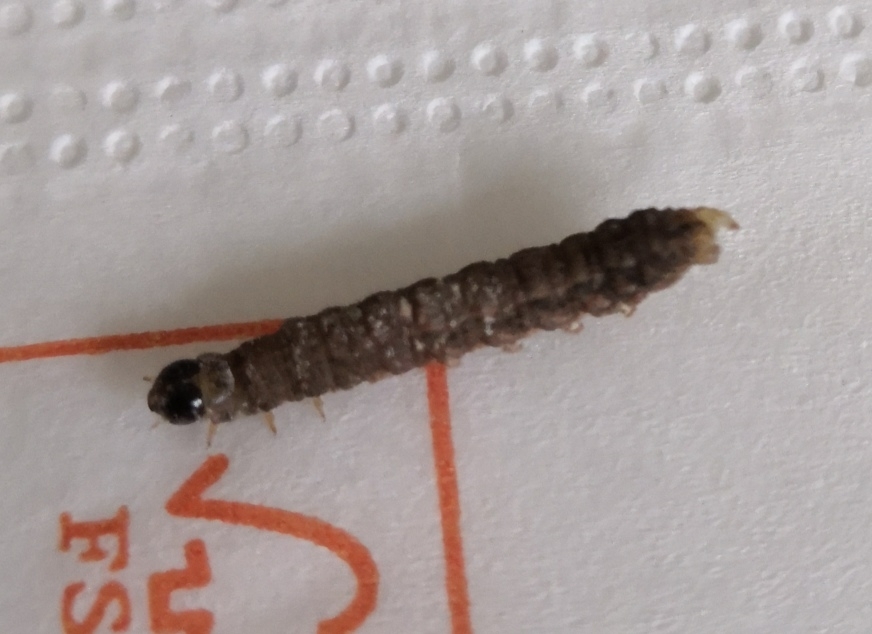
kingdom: Animalia
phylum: Arthropoda
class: Insecta
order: Lepidoptera
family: Crambidae
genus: Duponchelia
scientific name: Duponchelia fovealis
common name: Crambid moth
